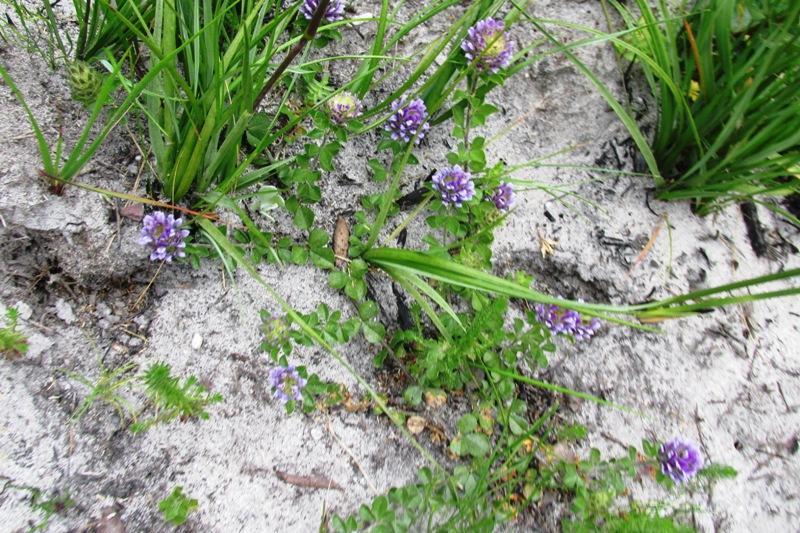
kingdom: Plantae
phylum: Tracheophyta
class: Magnoliopsida
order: Fabales
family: Fabaceae
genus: Psoralea
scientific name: Psoralea fruticans
